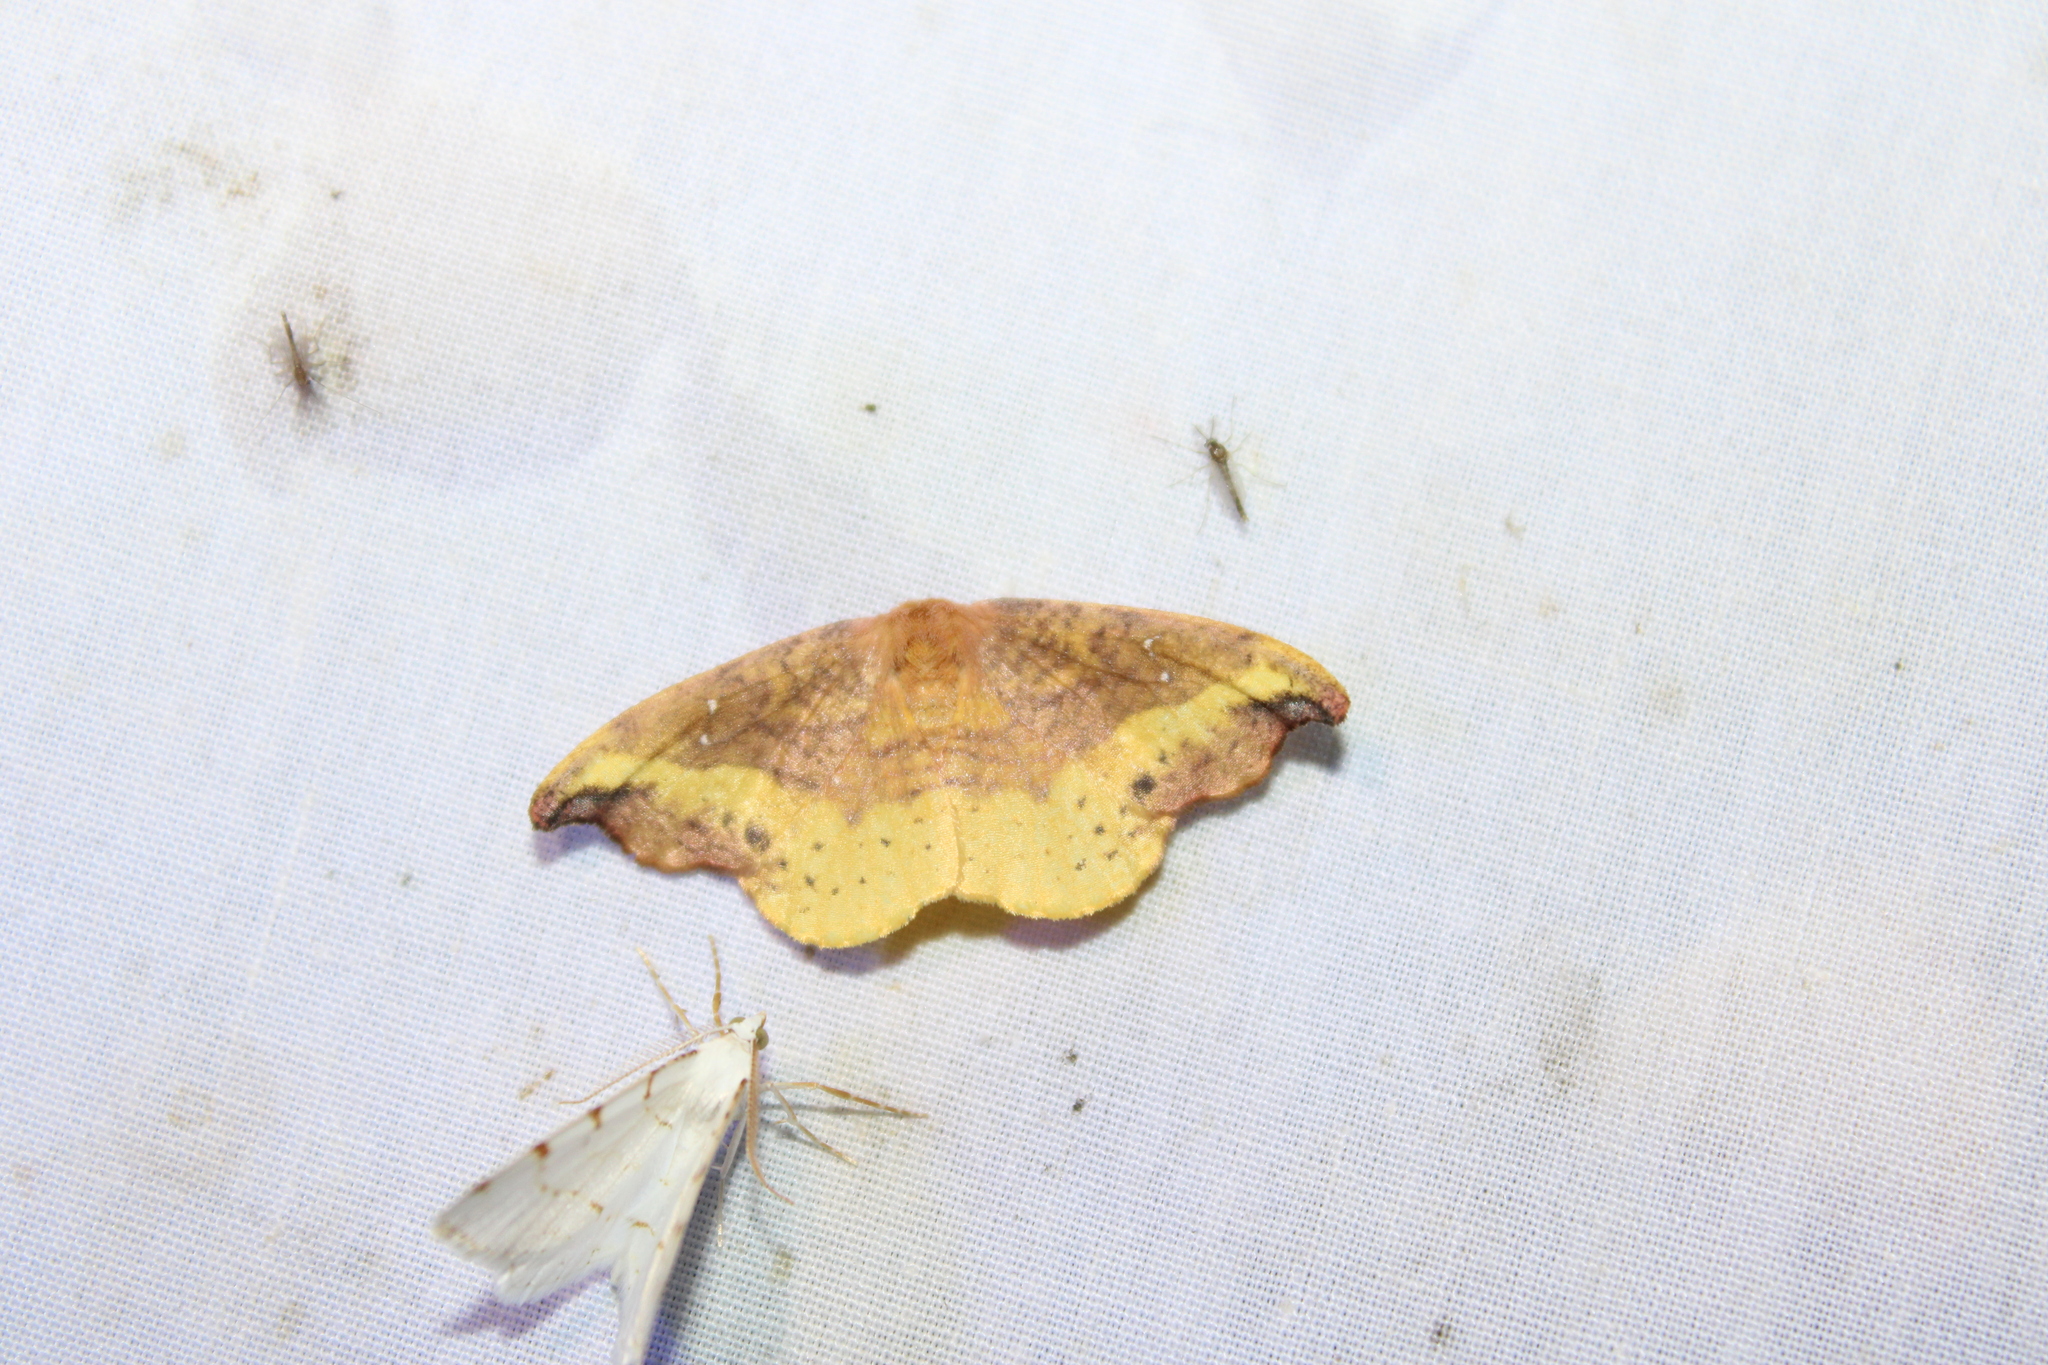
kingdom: Animalia
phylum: Arthropoda
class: Insecta
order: Lepidoptera
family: Drepanidae
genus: Oreta
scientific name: Oreta rosea
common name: Rose hooktip
